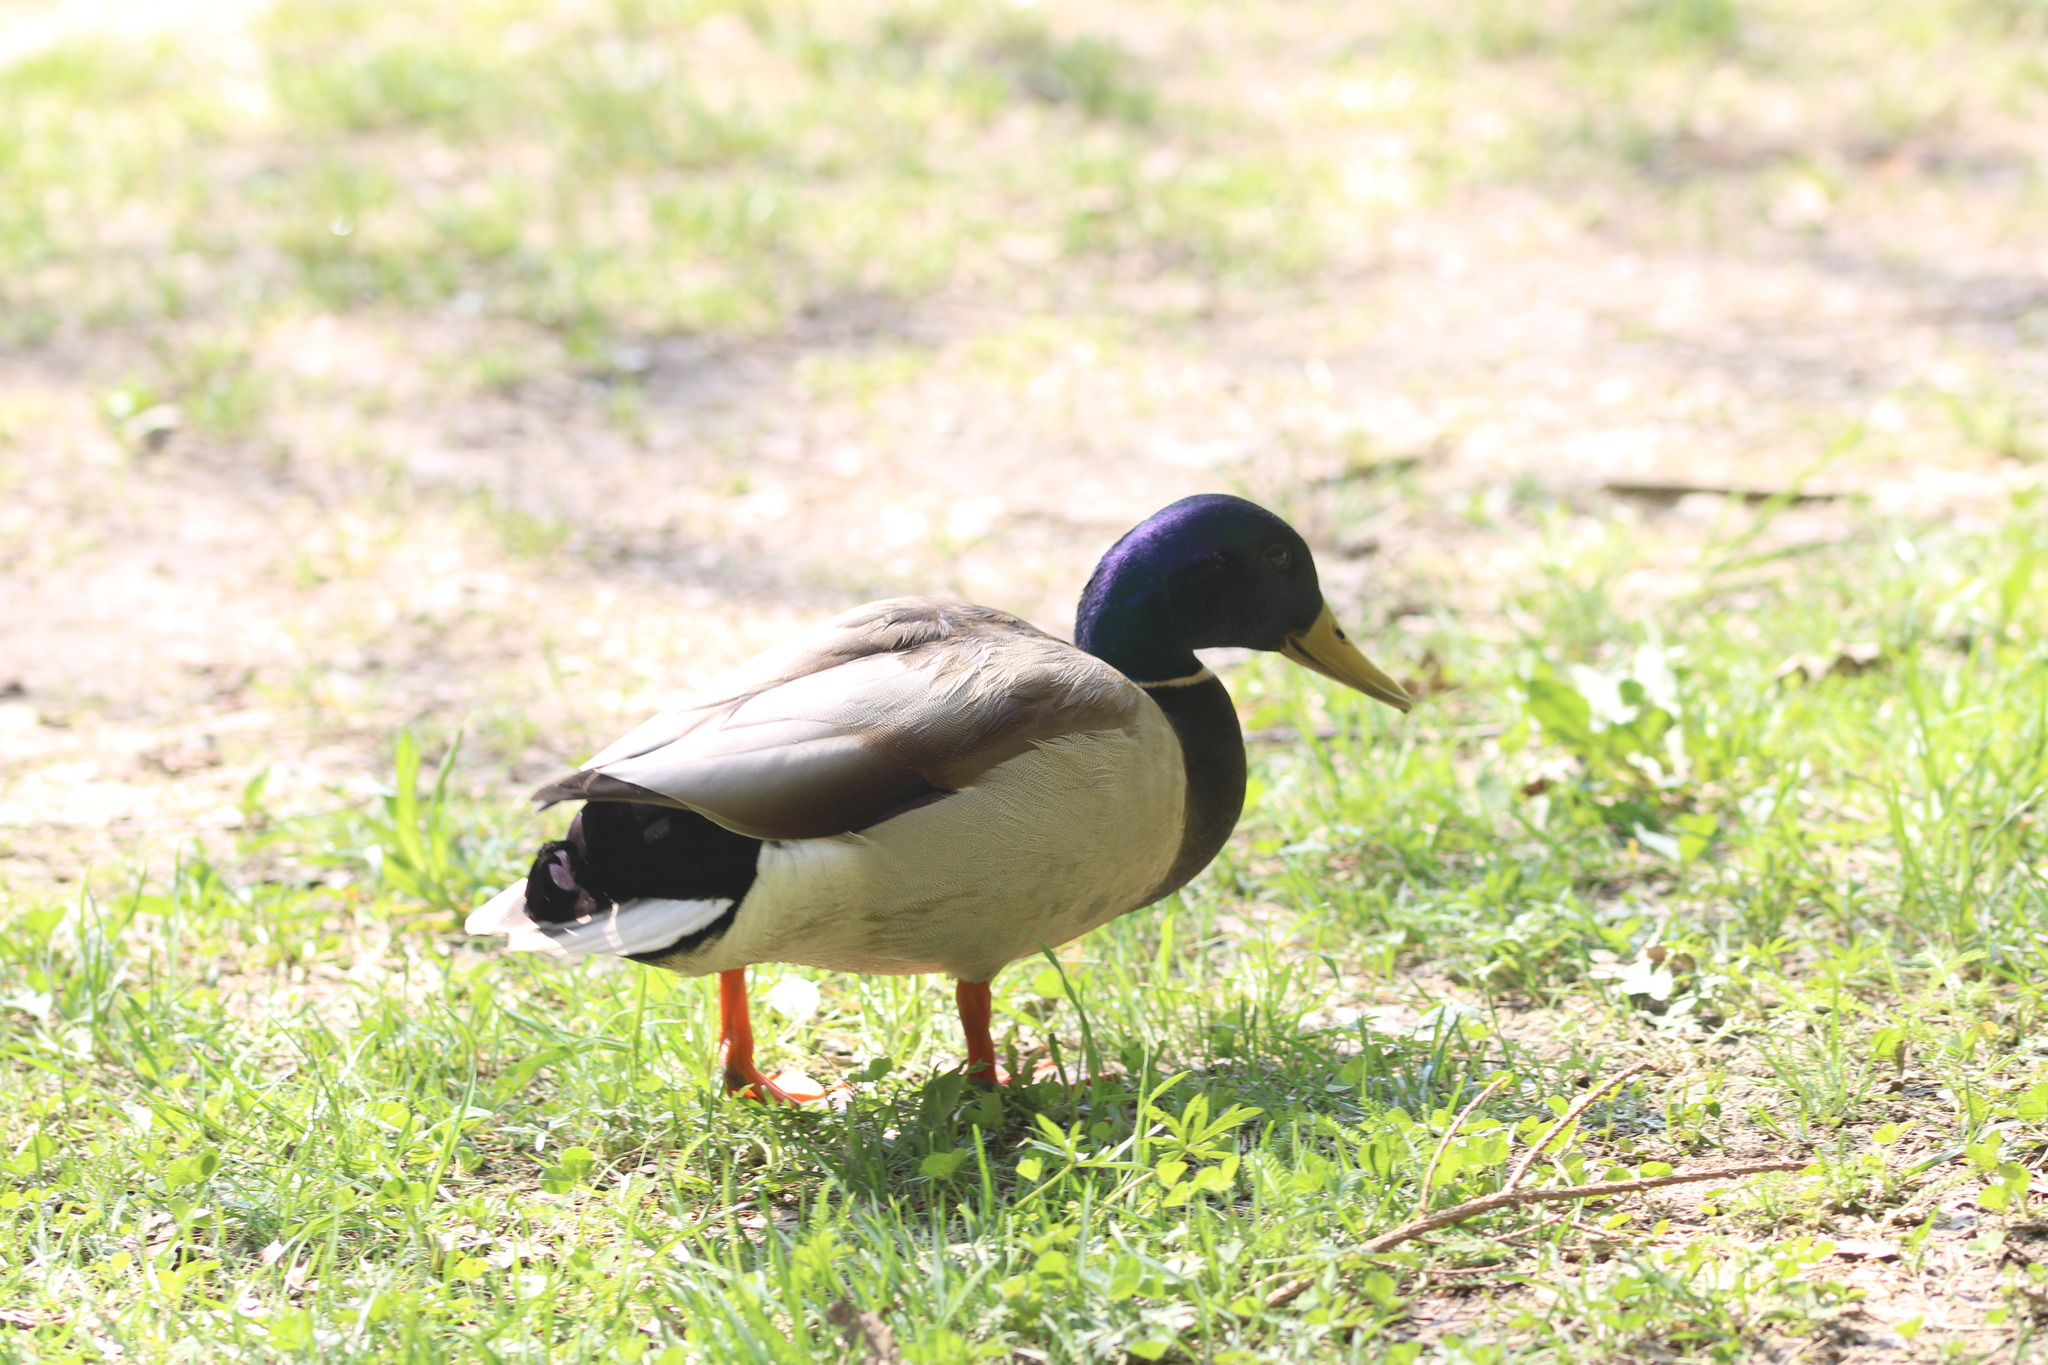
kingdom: Animalia
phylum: Chordata
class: Aves
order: Anseriformes
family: Anatidae
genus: Anas
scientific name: Anas platyrhynchos
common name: Mallard
